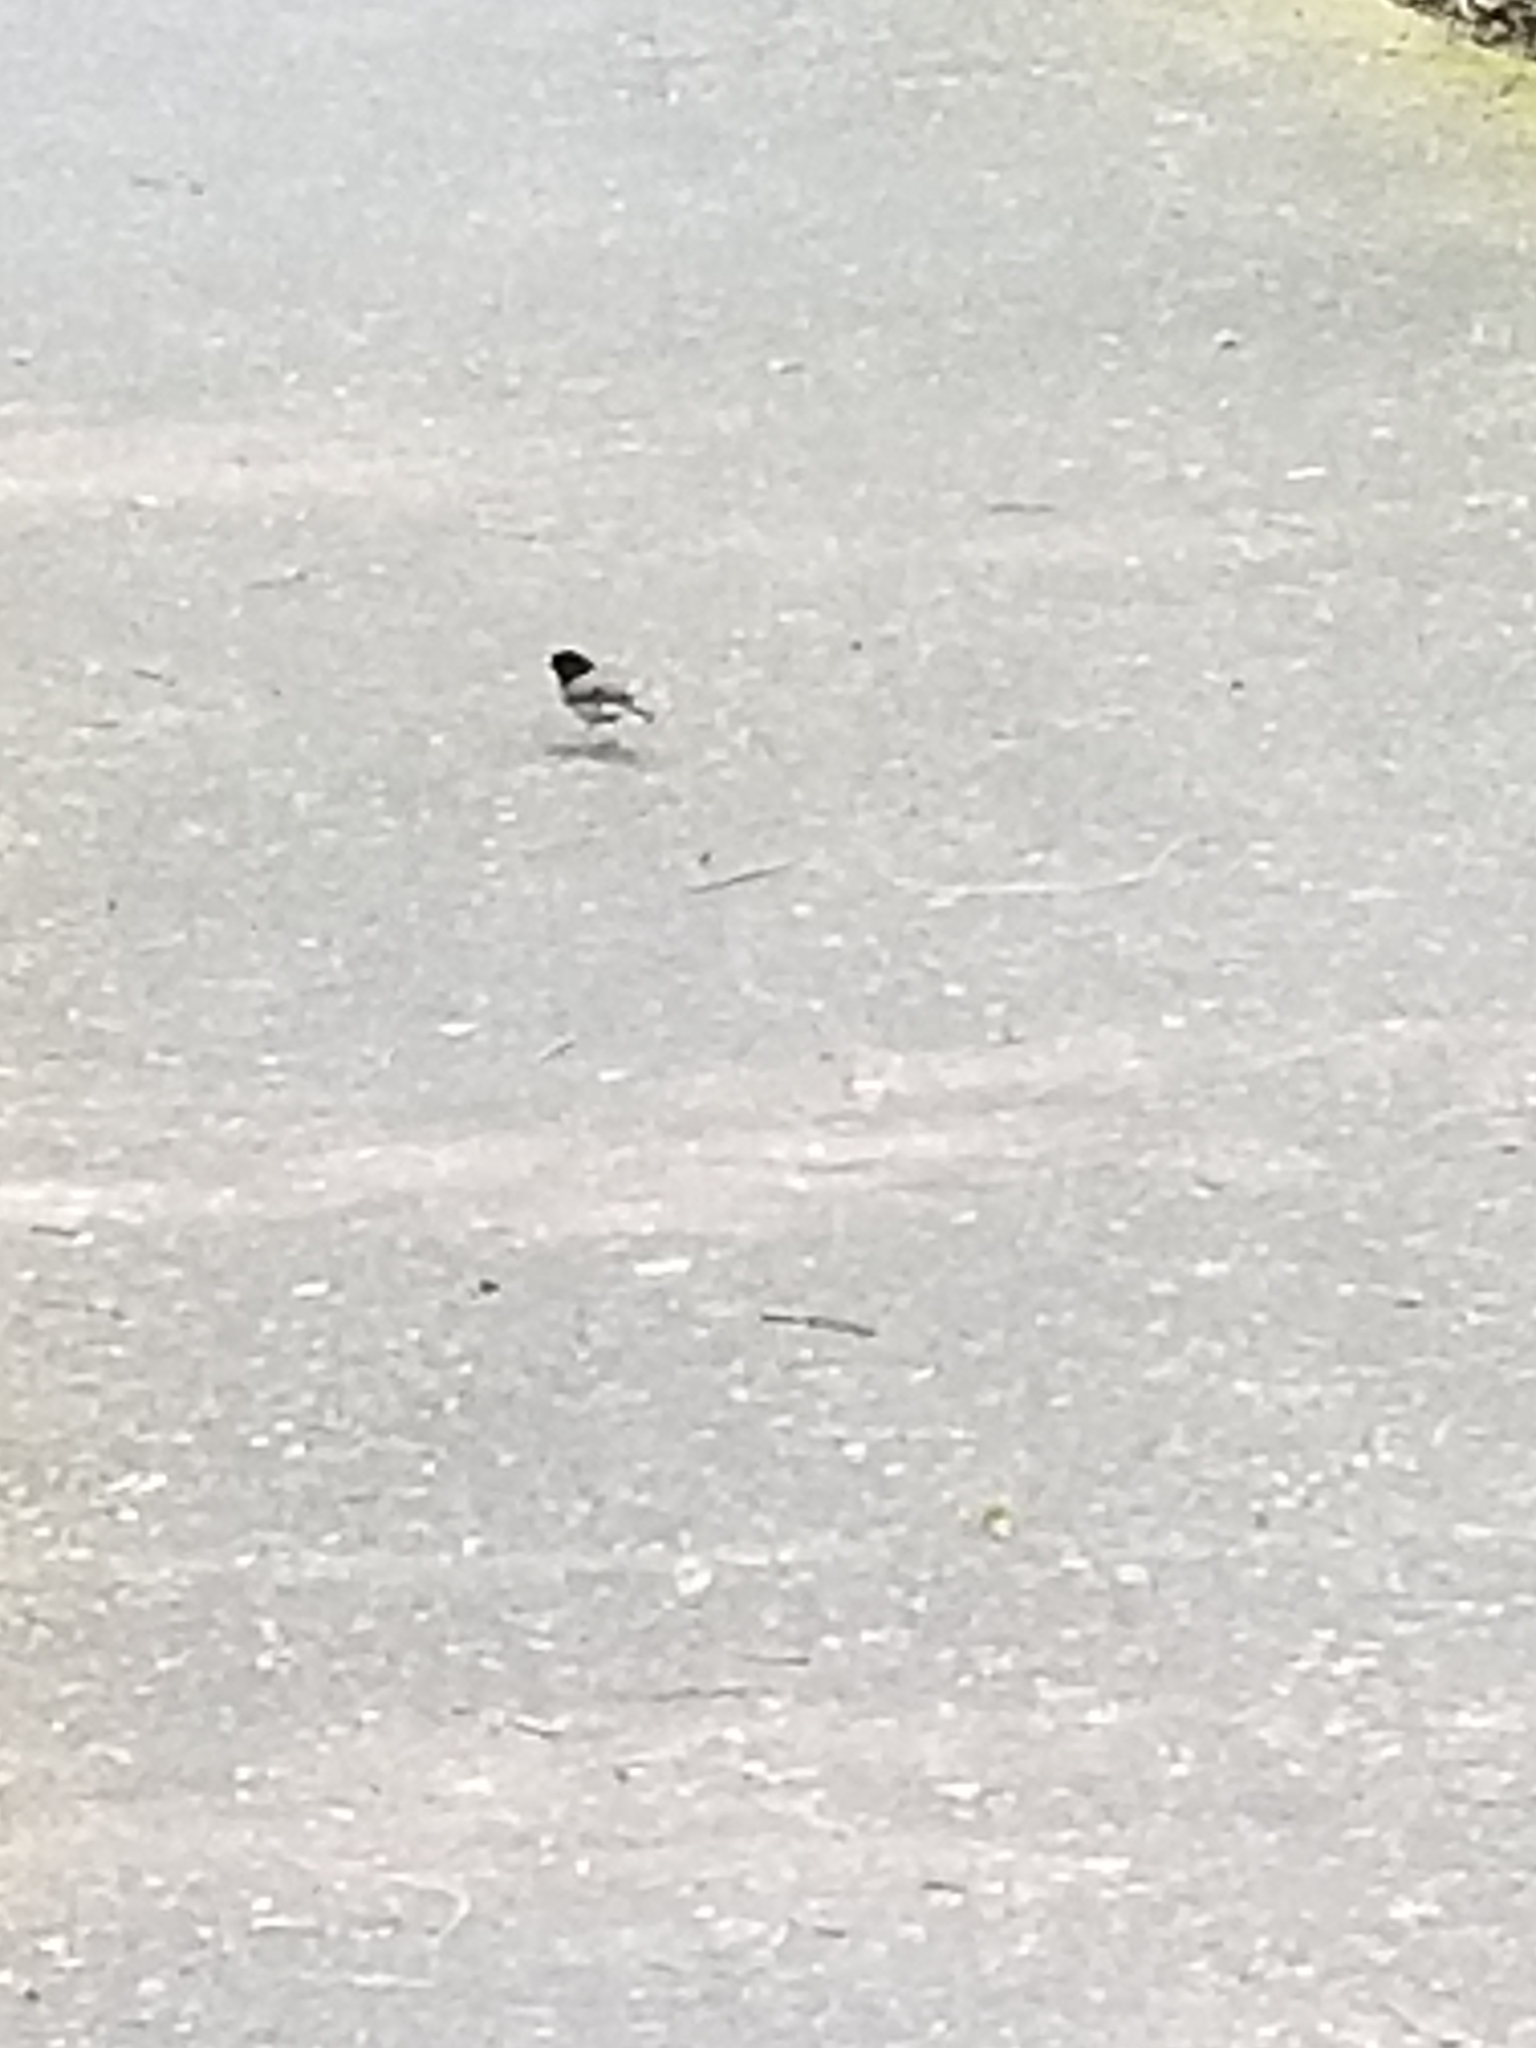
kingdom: Animalia
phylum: Chordata
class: Aves
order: Passeriformes
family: Passerellidae
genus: Junco
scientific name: Junco hyemalis
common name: Dark-eyed junco
